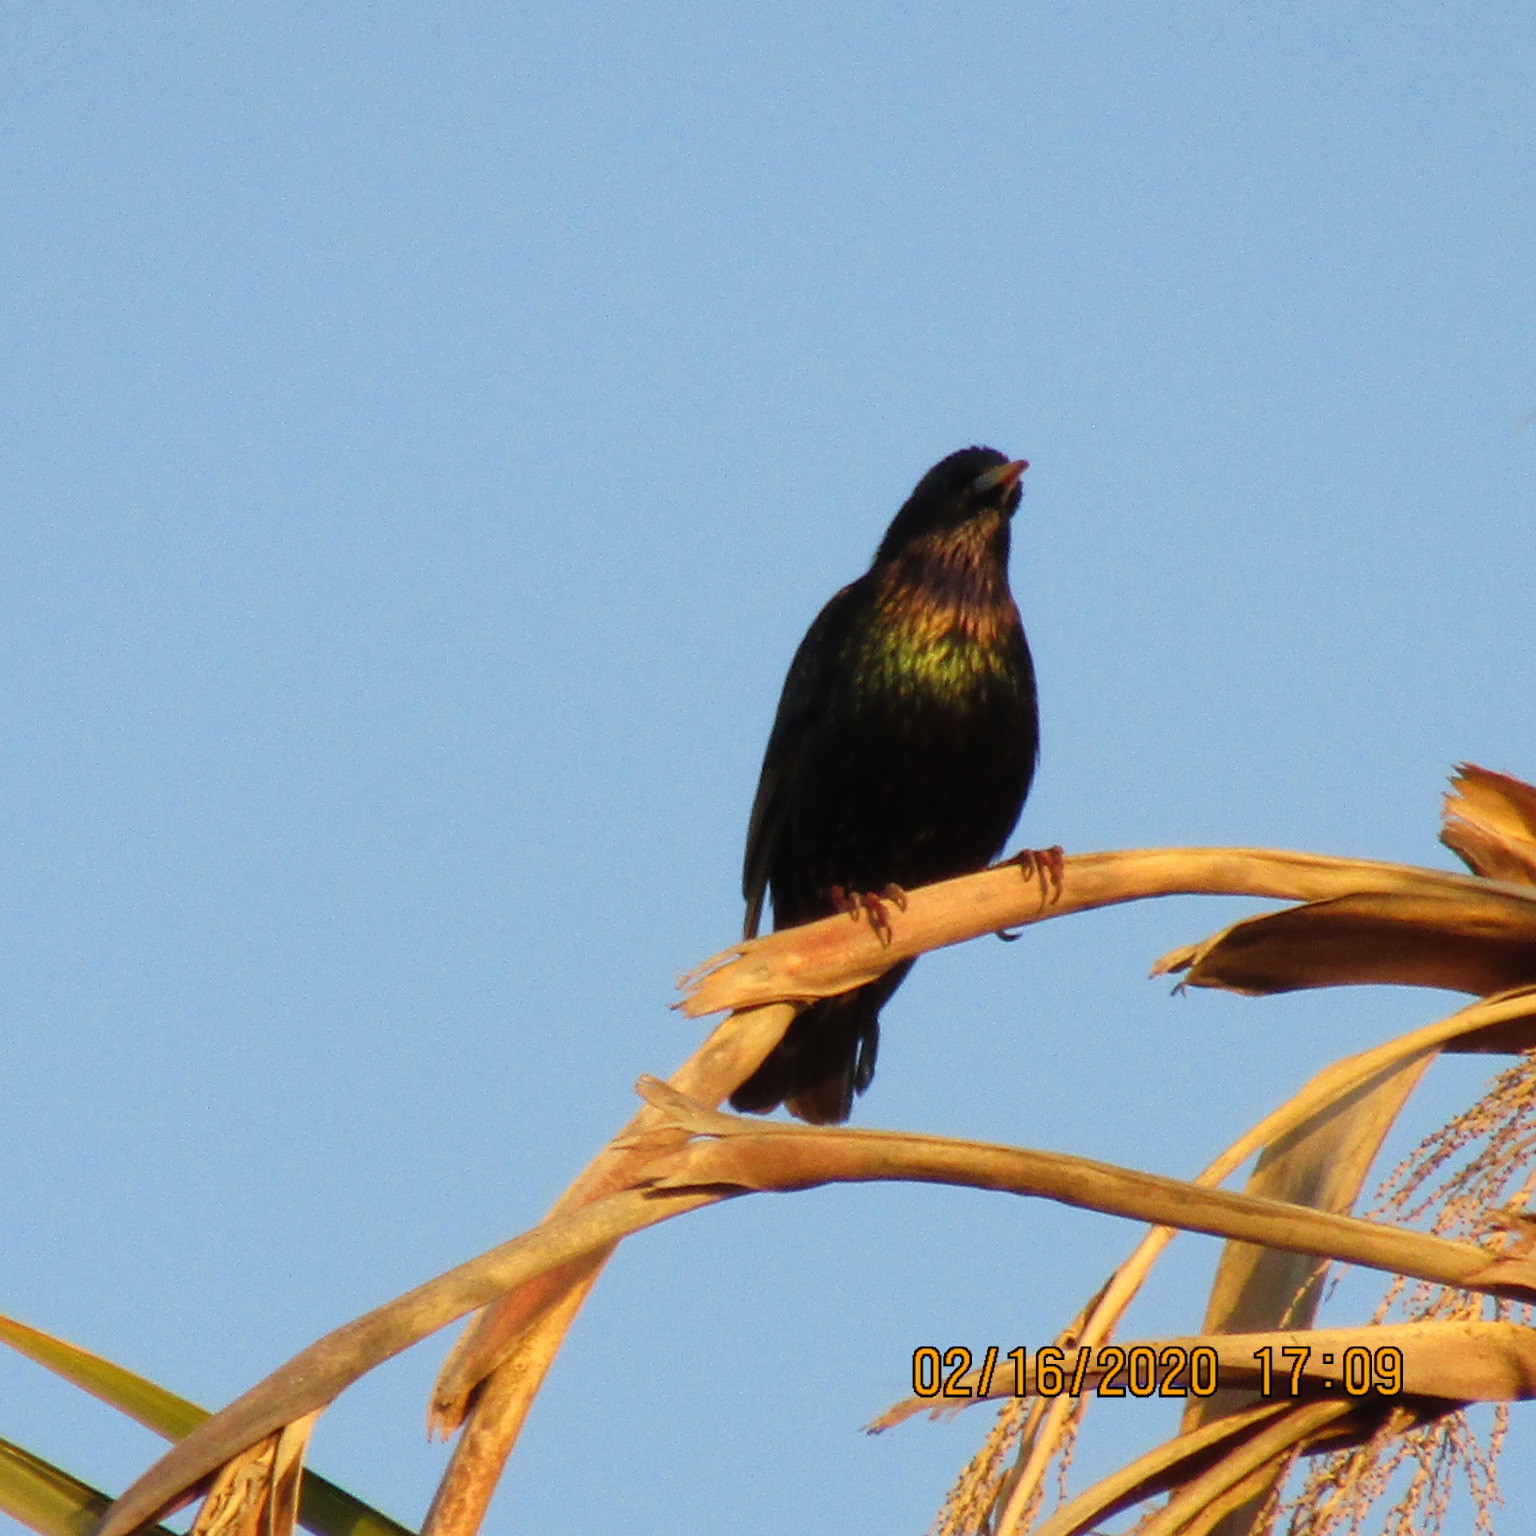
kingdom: Animalia
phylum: Chordata
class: Aves
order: Passeriformes
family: Sturnidae
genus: Sturnus
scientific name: Sturnus vulgaris
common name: Common starling
